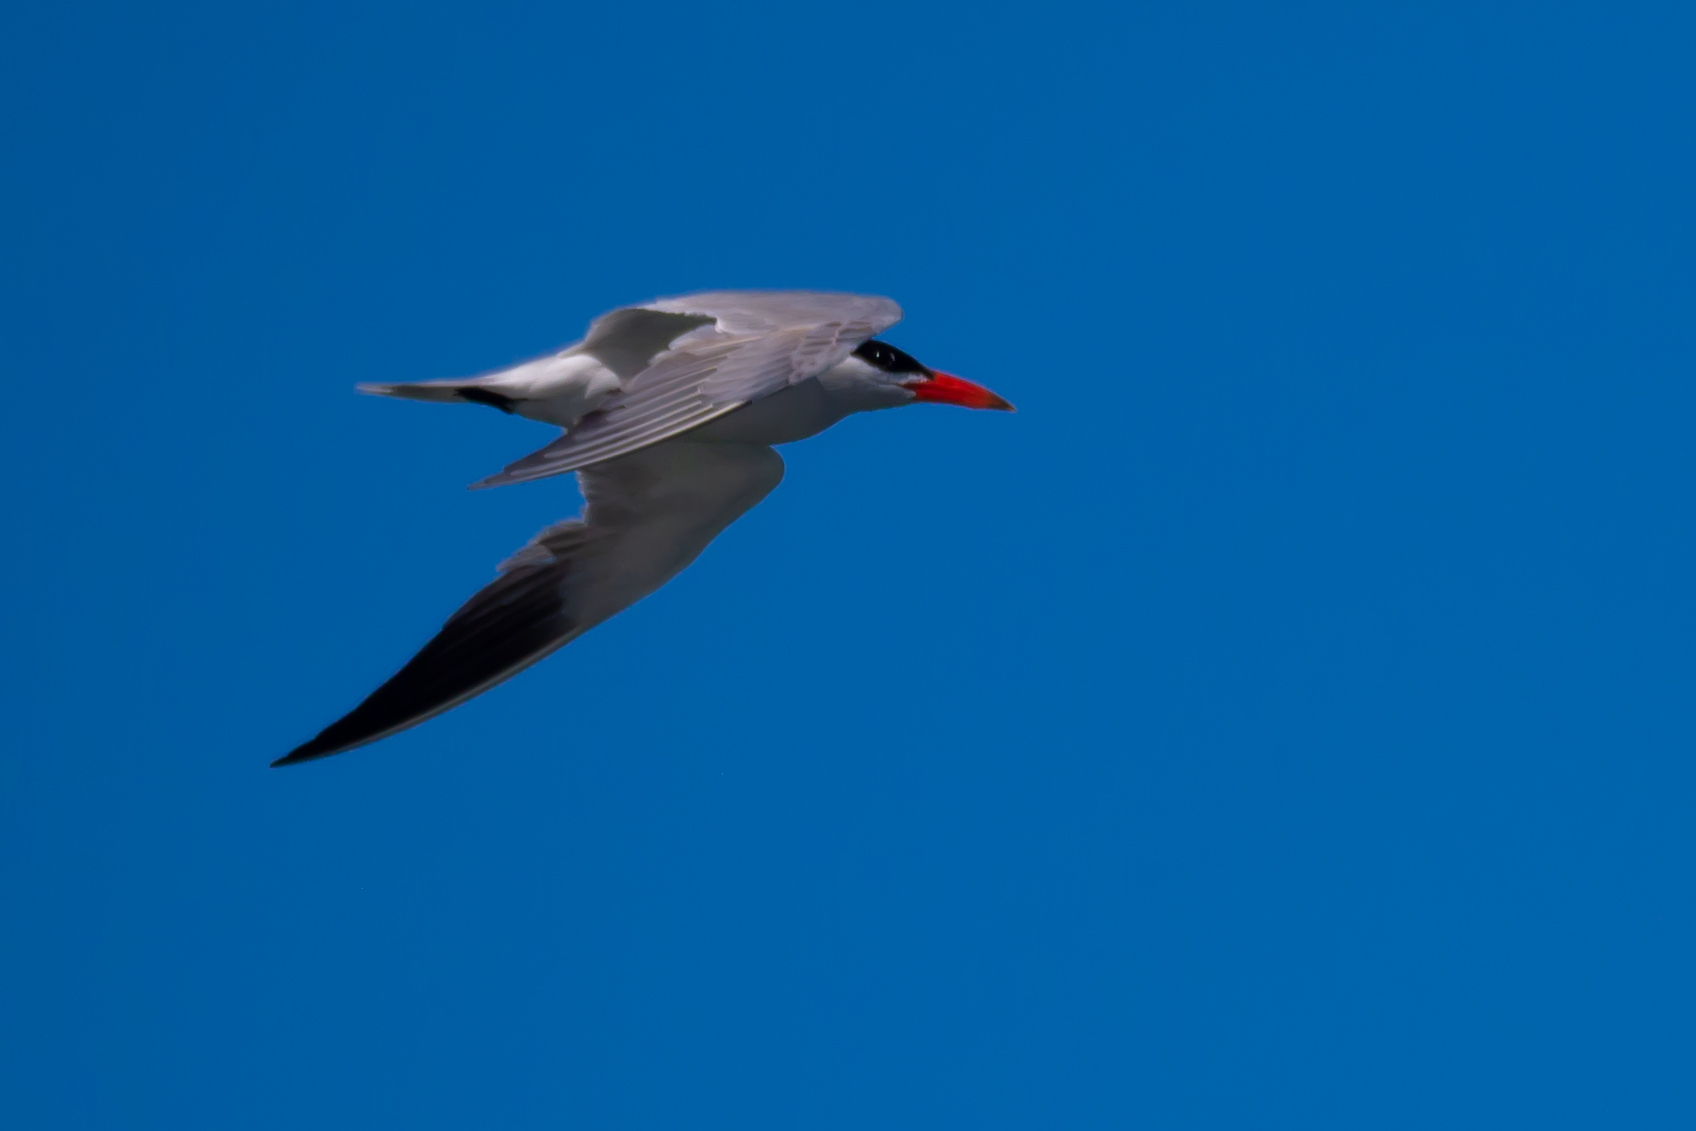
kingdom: Animalia
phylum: Chordata
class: Aves
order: Charadriiformes
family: Laridae
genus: Hydroprogne
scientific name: Hydroprogne caspia
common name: Caspian tern
